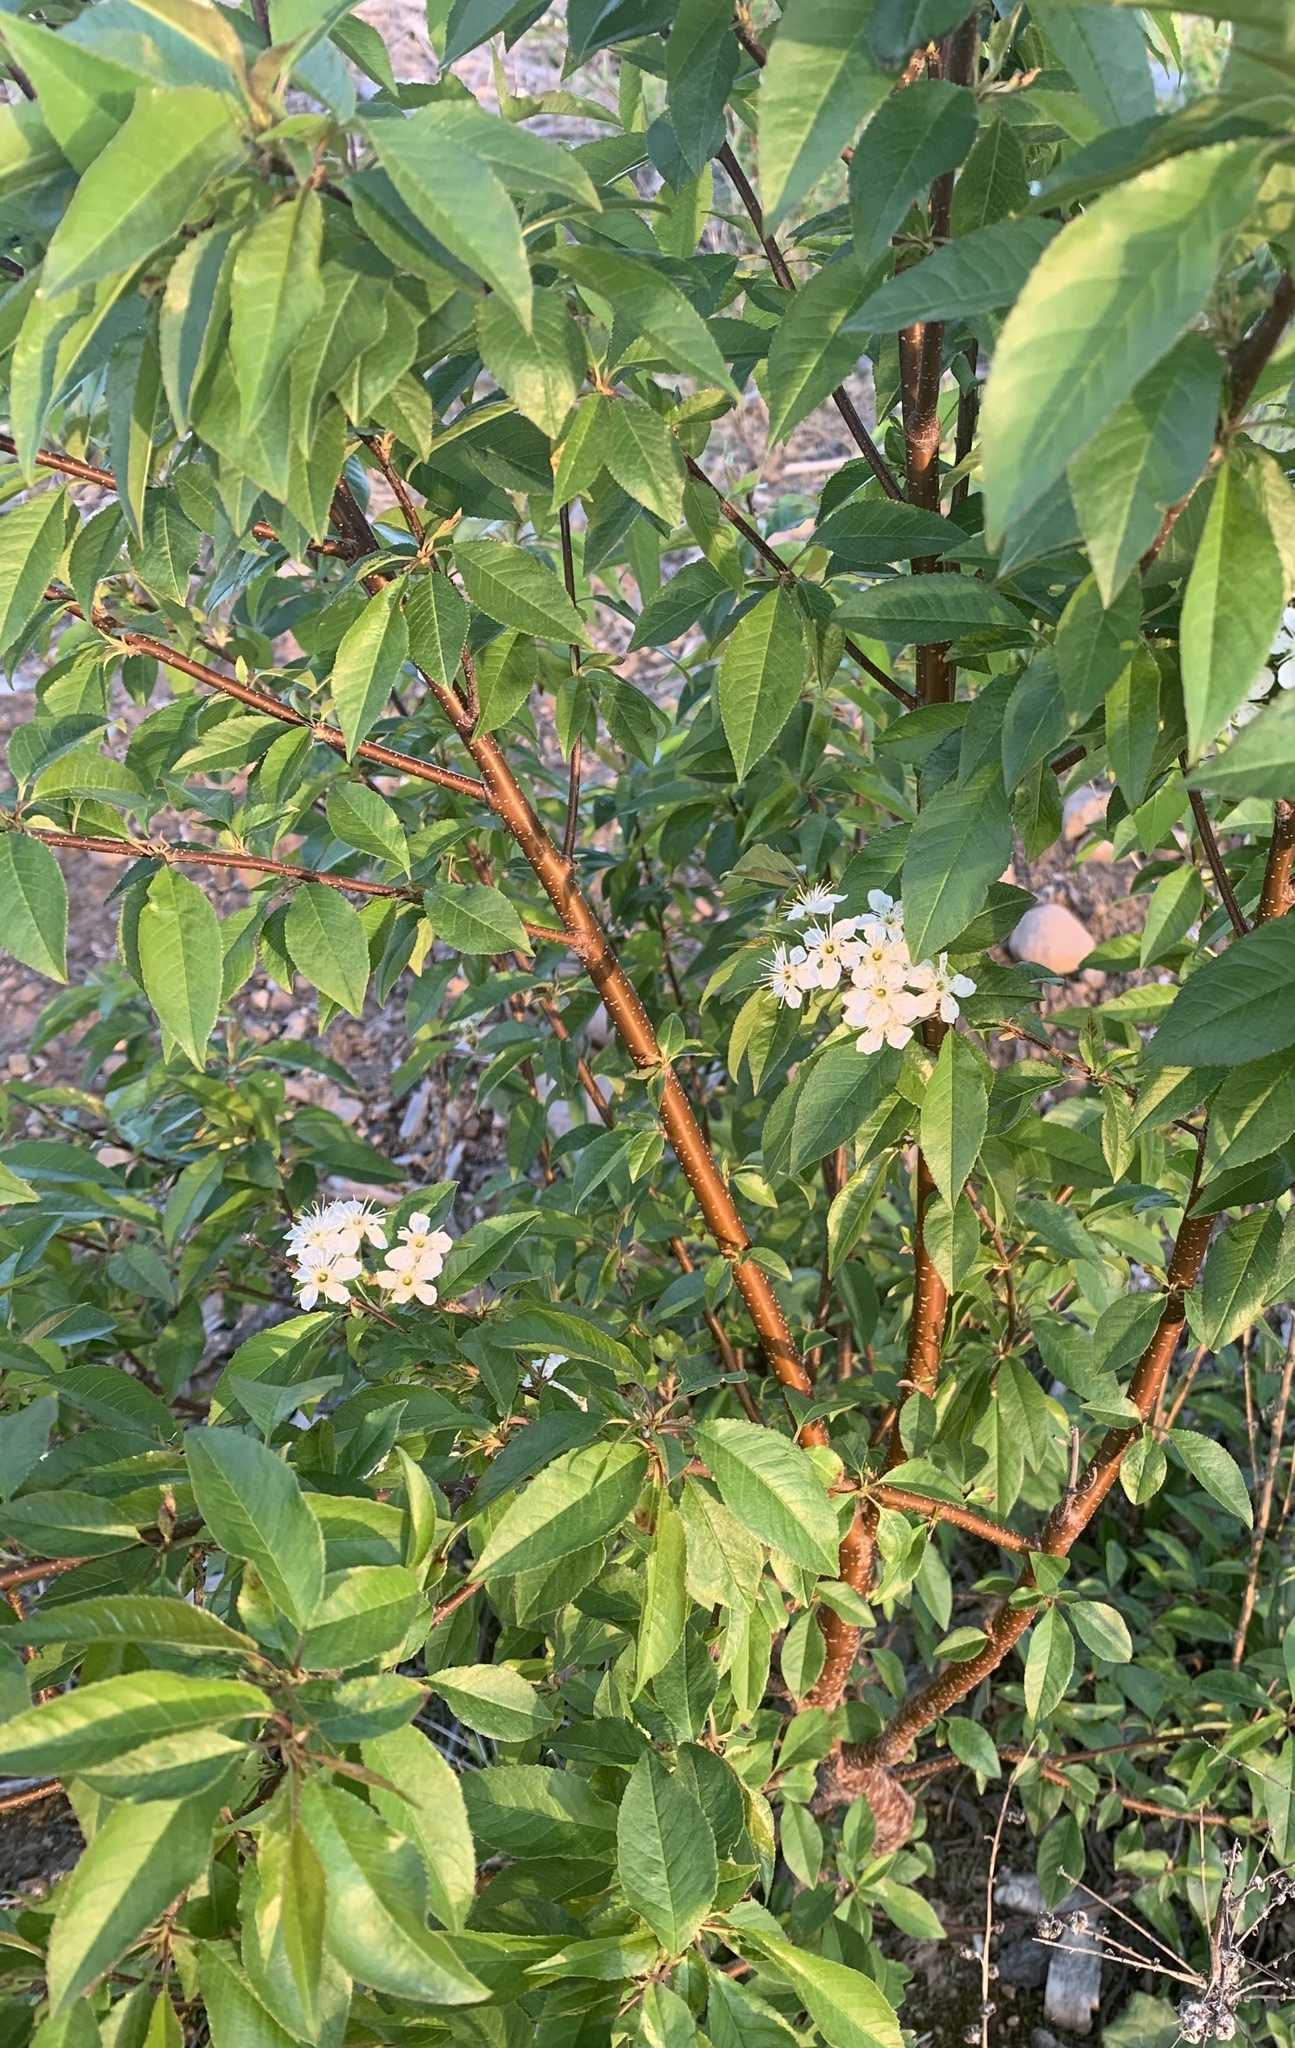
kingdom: Plantae
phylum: Tracheophyta
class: Magnoliopsida
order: Rosales
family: Rosaceae
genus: Prunus
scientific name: Prunus pensylvanica
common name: Pin cherry
